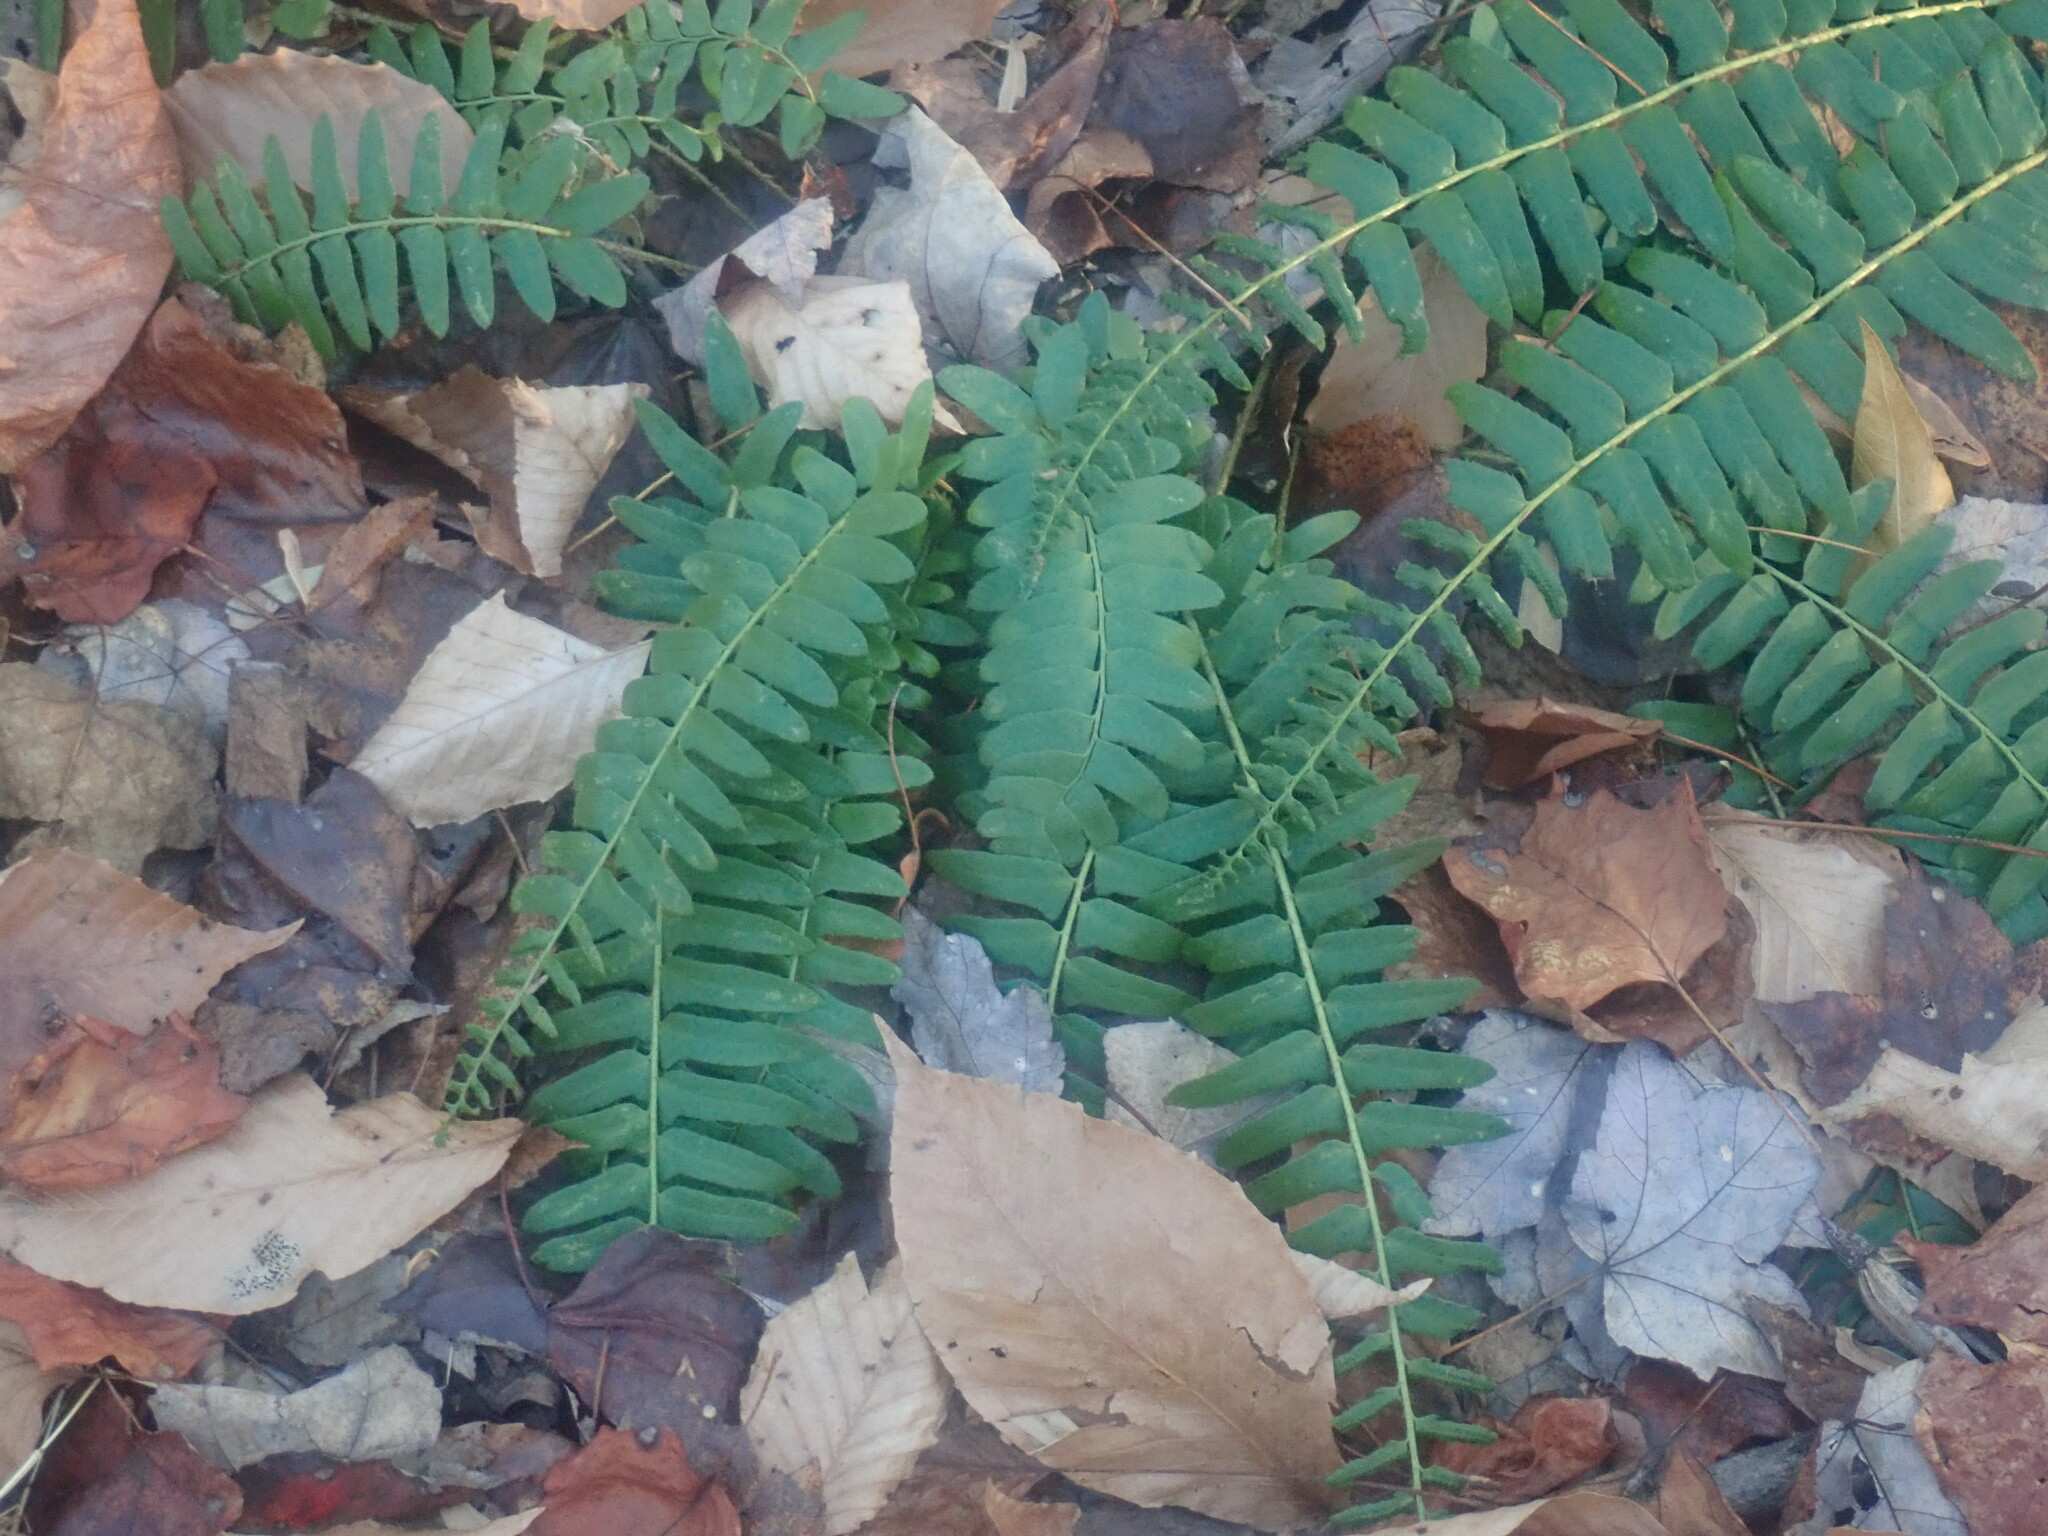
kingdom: Plantae
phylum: Tracheophyta
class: Polypodiopsida
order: Polypodiales
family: Dryopteridaceae
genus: Polystichum
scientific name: Polystichum acrostichoides
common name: Christmas fern
